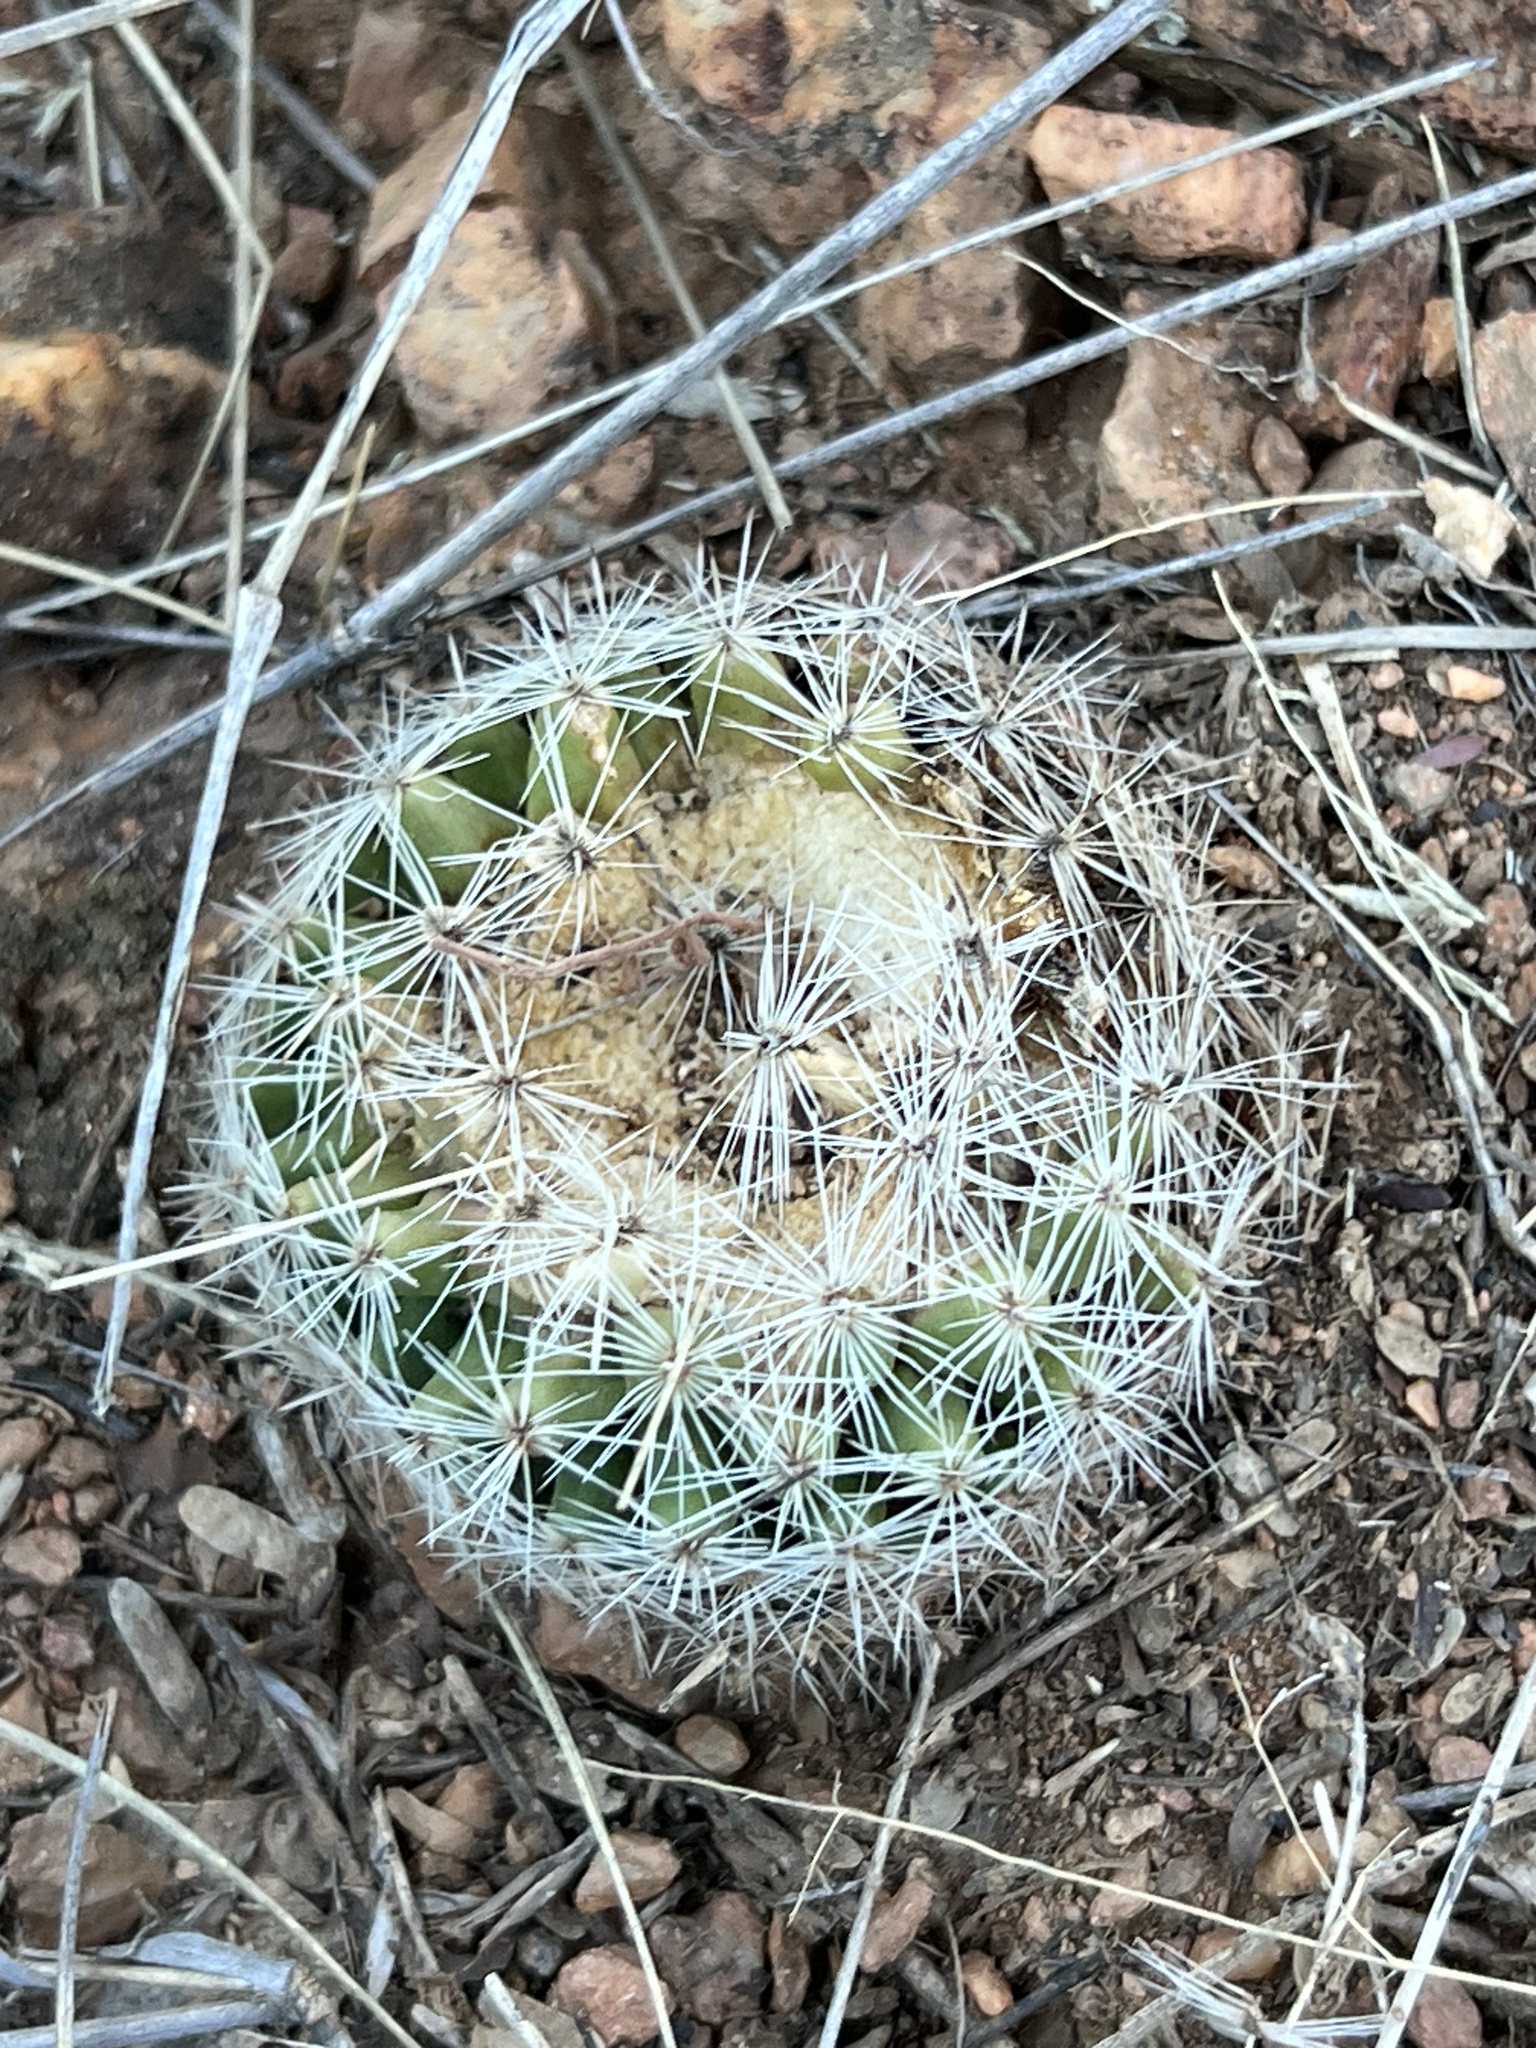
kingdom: Plantae
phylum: Tracheophyta
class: Magnoliopsida
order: Caryophyllales
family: Cactaceae
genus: Cochemiea
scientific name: Cochemiea grahamii
